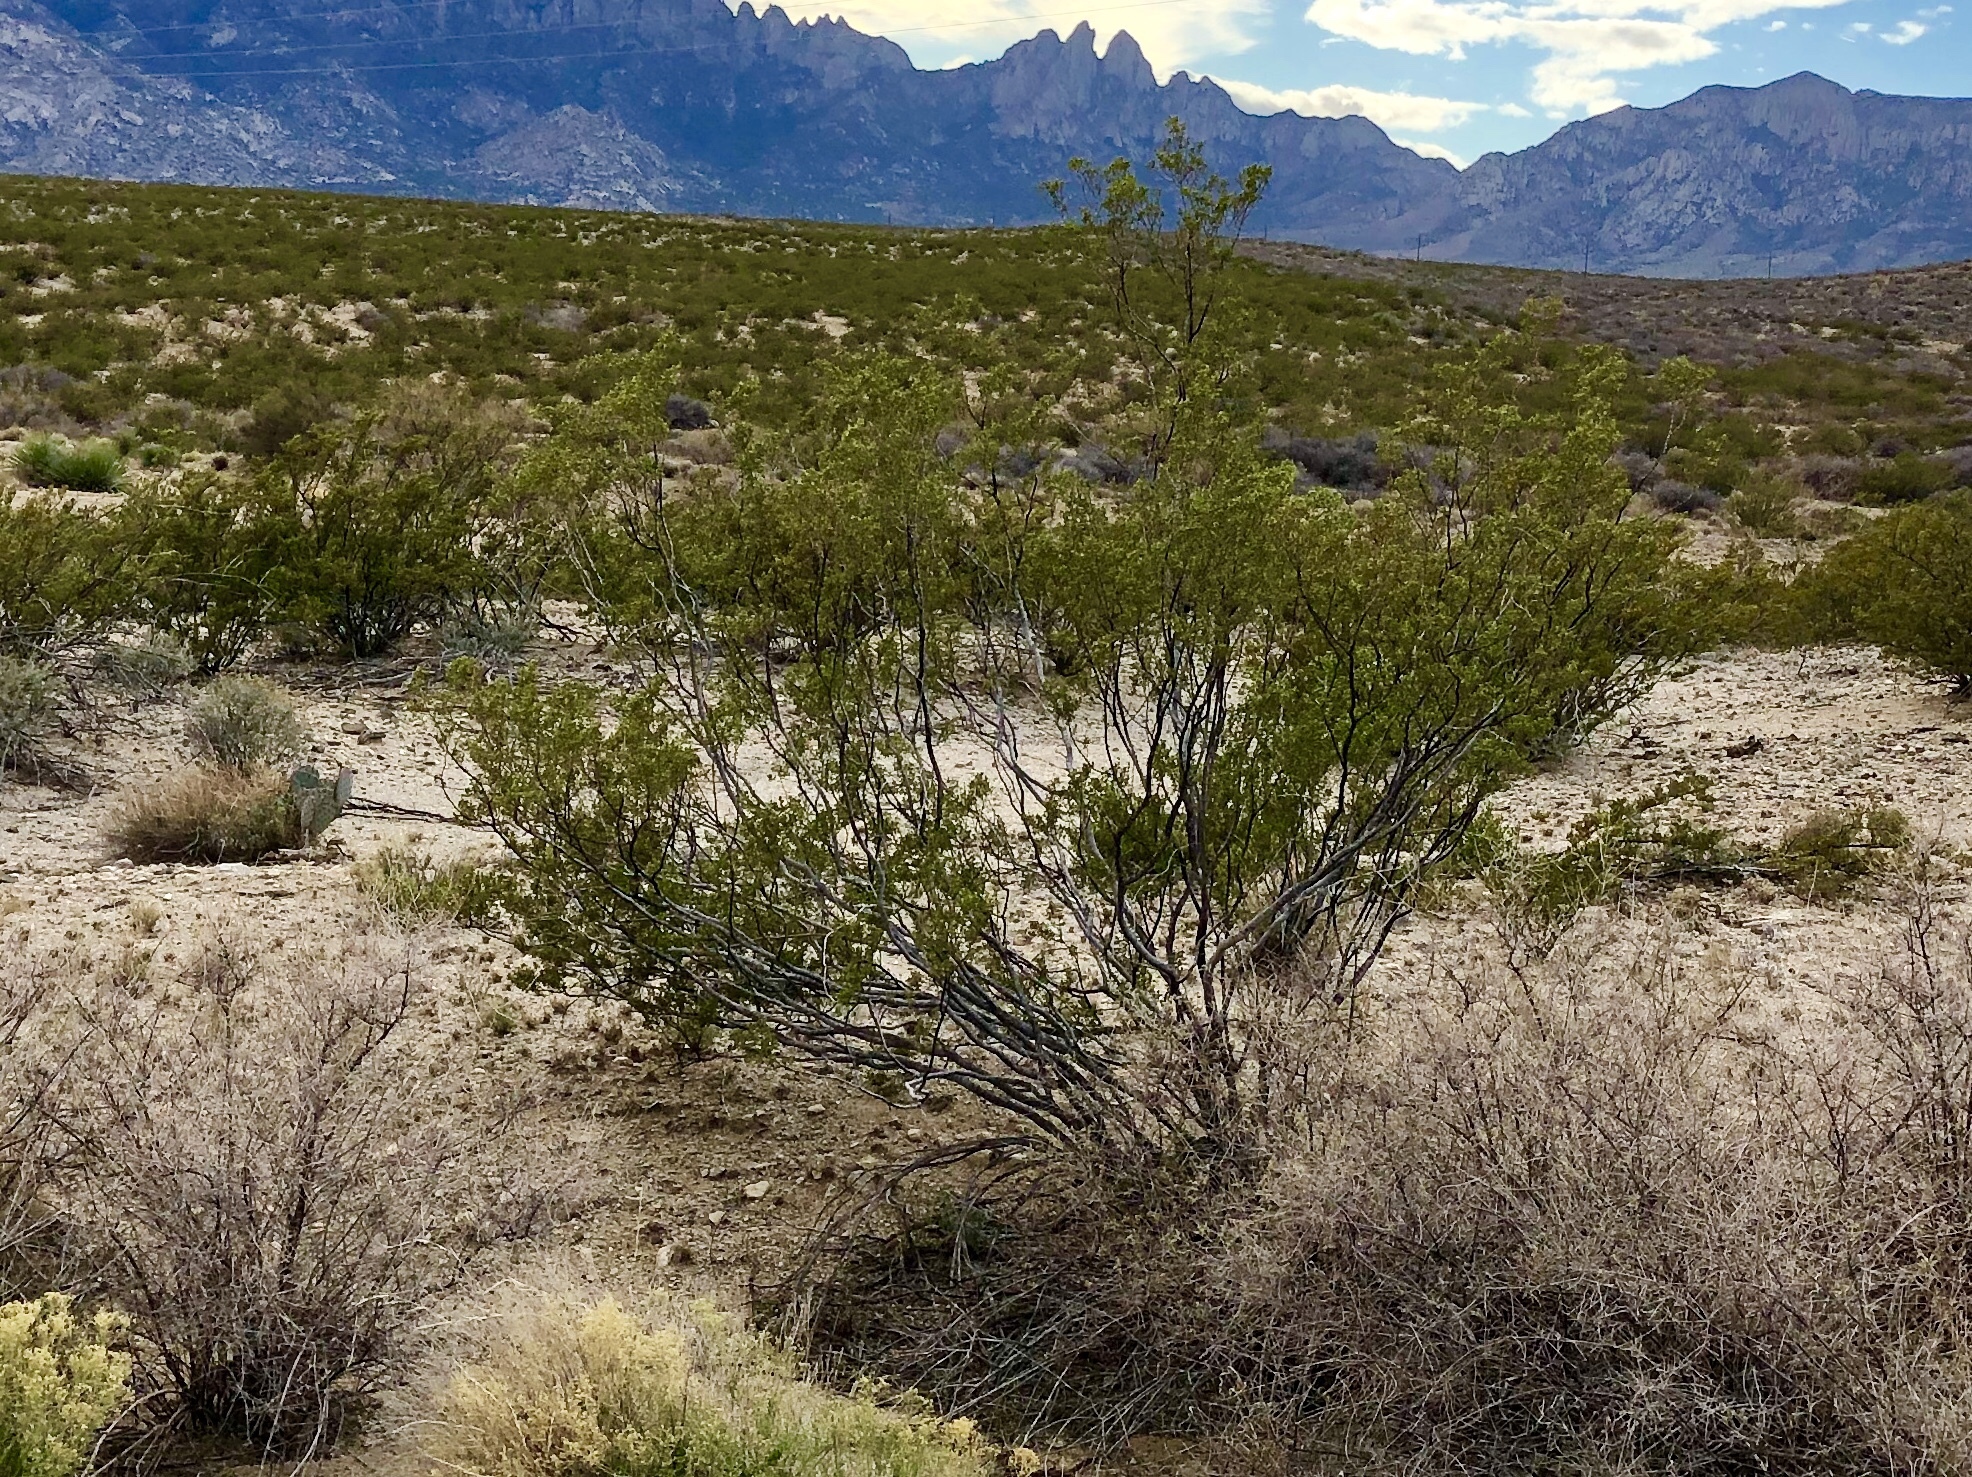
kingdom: Plantae
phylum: Tracheophyta
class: Magnoliopsida
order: Zygophyllales
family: Zygophyllaceae
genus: Larrea
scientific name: Larrea tridentata
